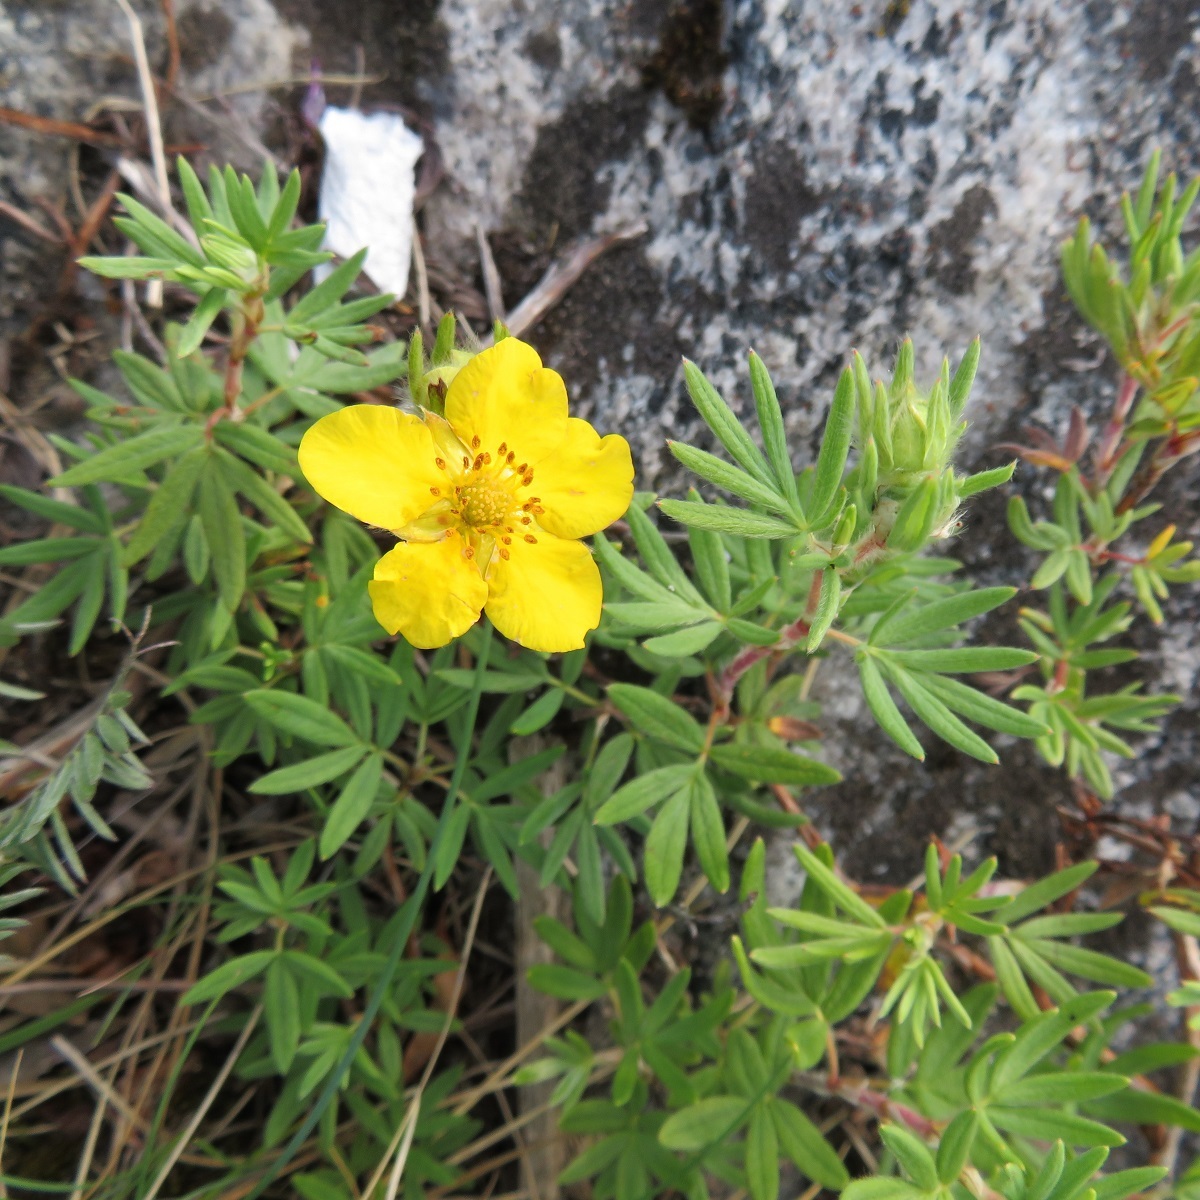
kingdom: Plantae
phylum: Tracheophyta
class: Magnoliopsida
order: Rosales
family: Rosaceae
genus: Dasiphora
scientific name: Dasiphora fruticosa
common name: Shrubby cinquefoil
